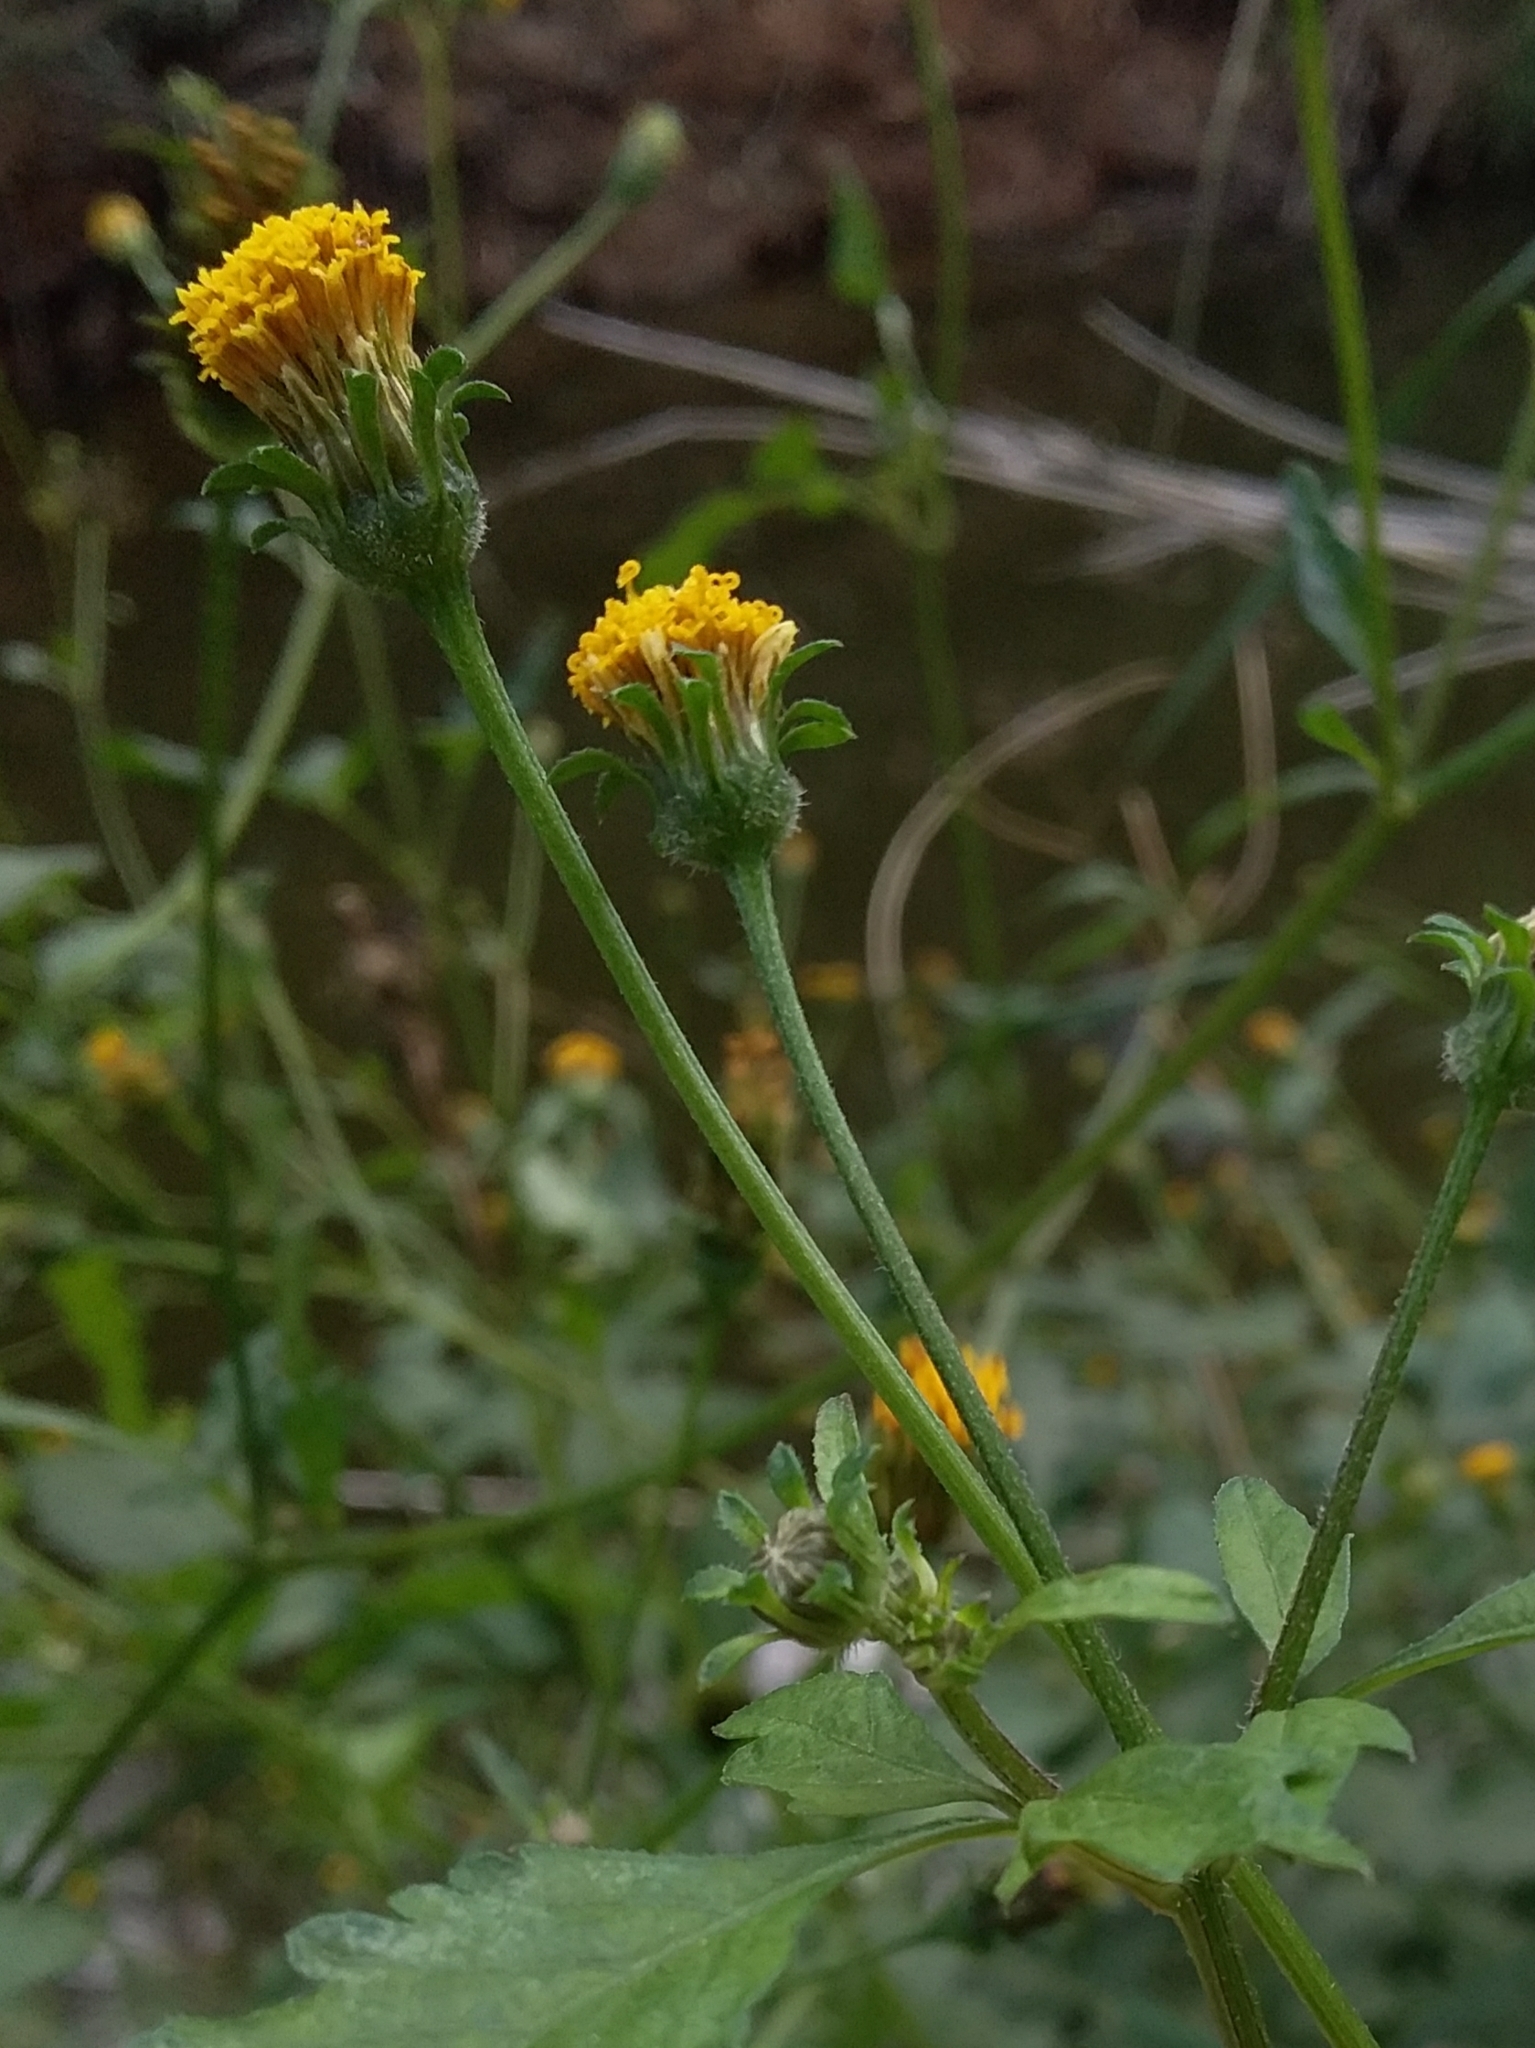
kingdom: Plantae
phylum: Tracheophyta
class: Magnoliopsida
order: Asterales
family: Asteraceae
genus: Bidens
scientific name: Bidens pilosa
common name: Black-jack
